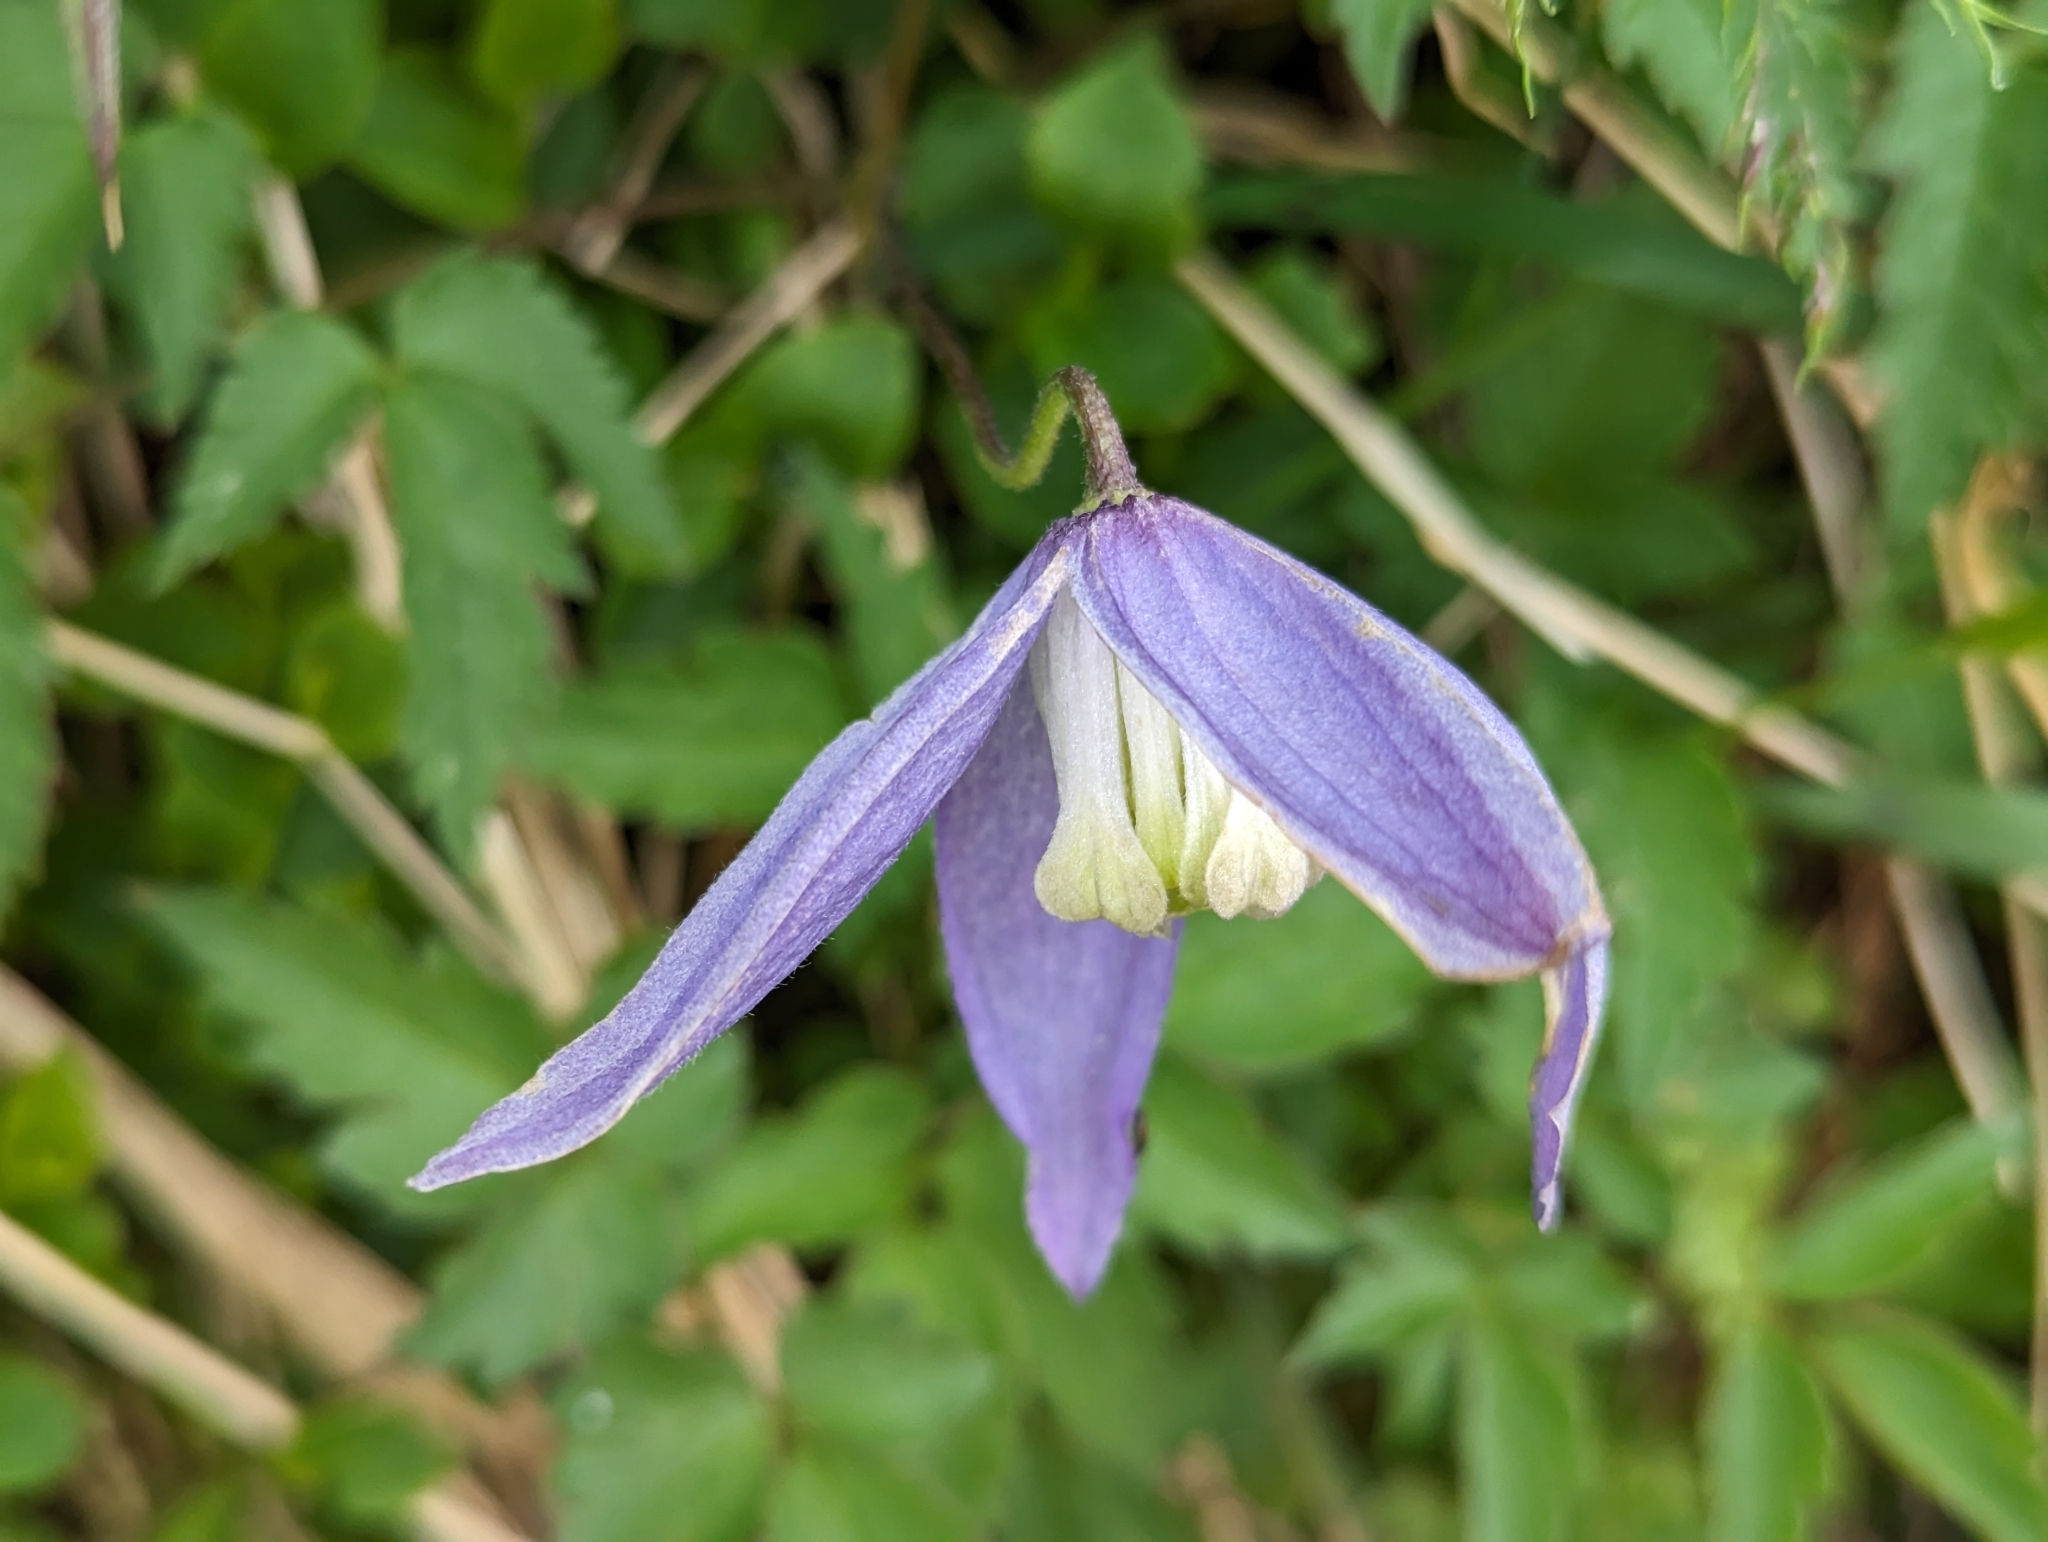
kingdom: Plantae
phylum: Tracheophyta
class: Magnoliopsida
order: Ranunculales
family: Ranunculaceae
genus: Clematis
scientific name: Clematis alpina
